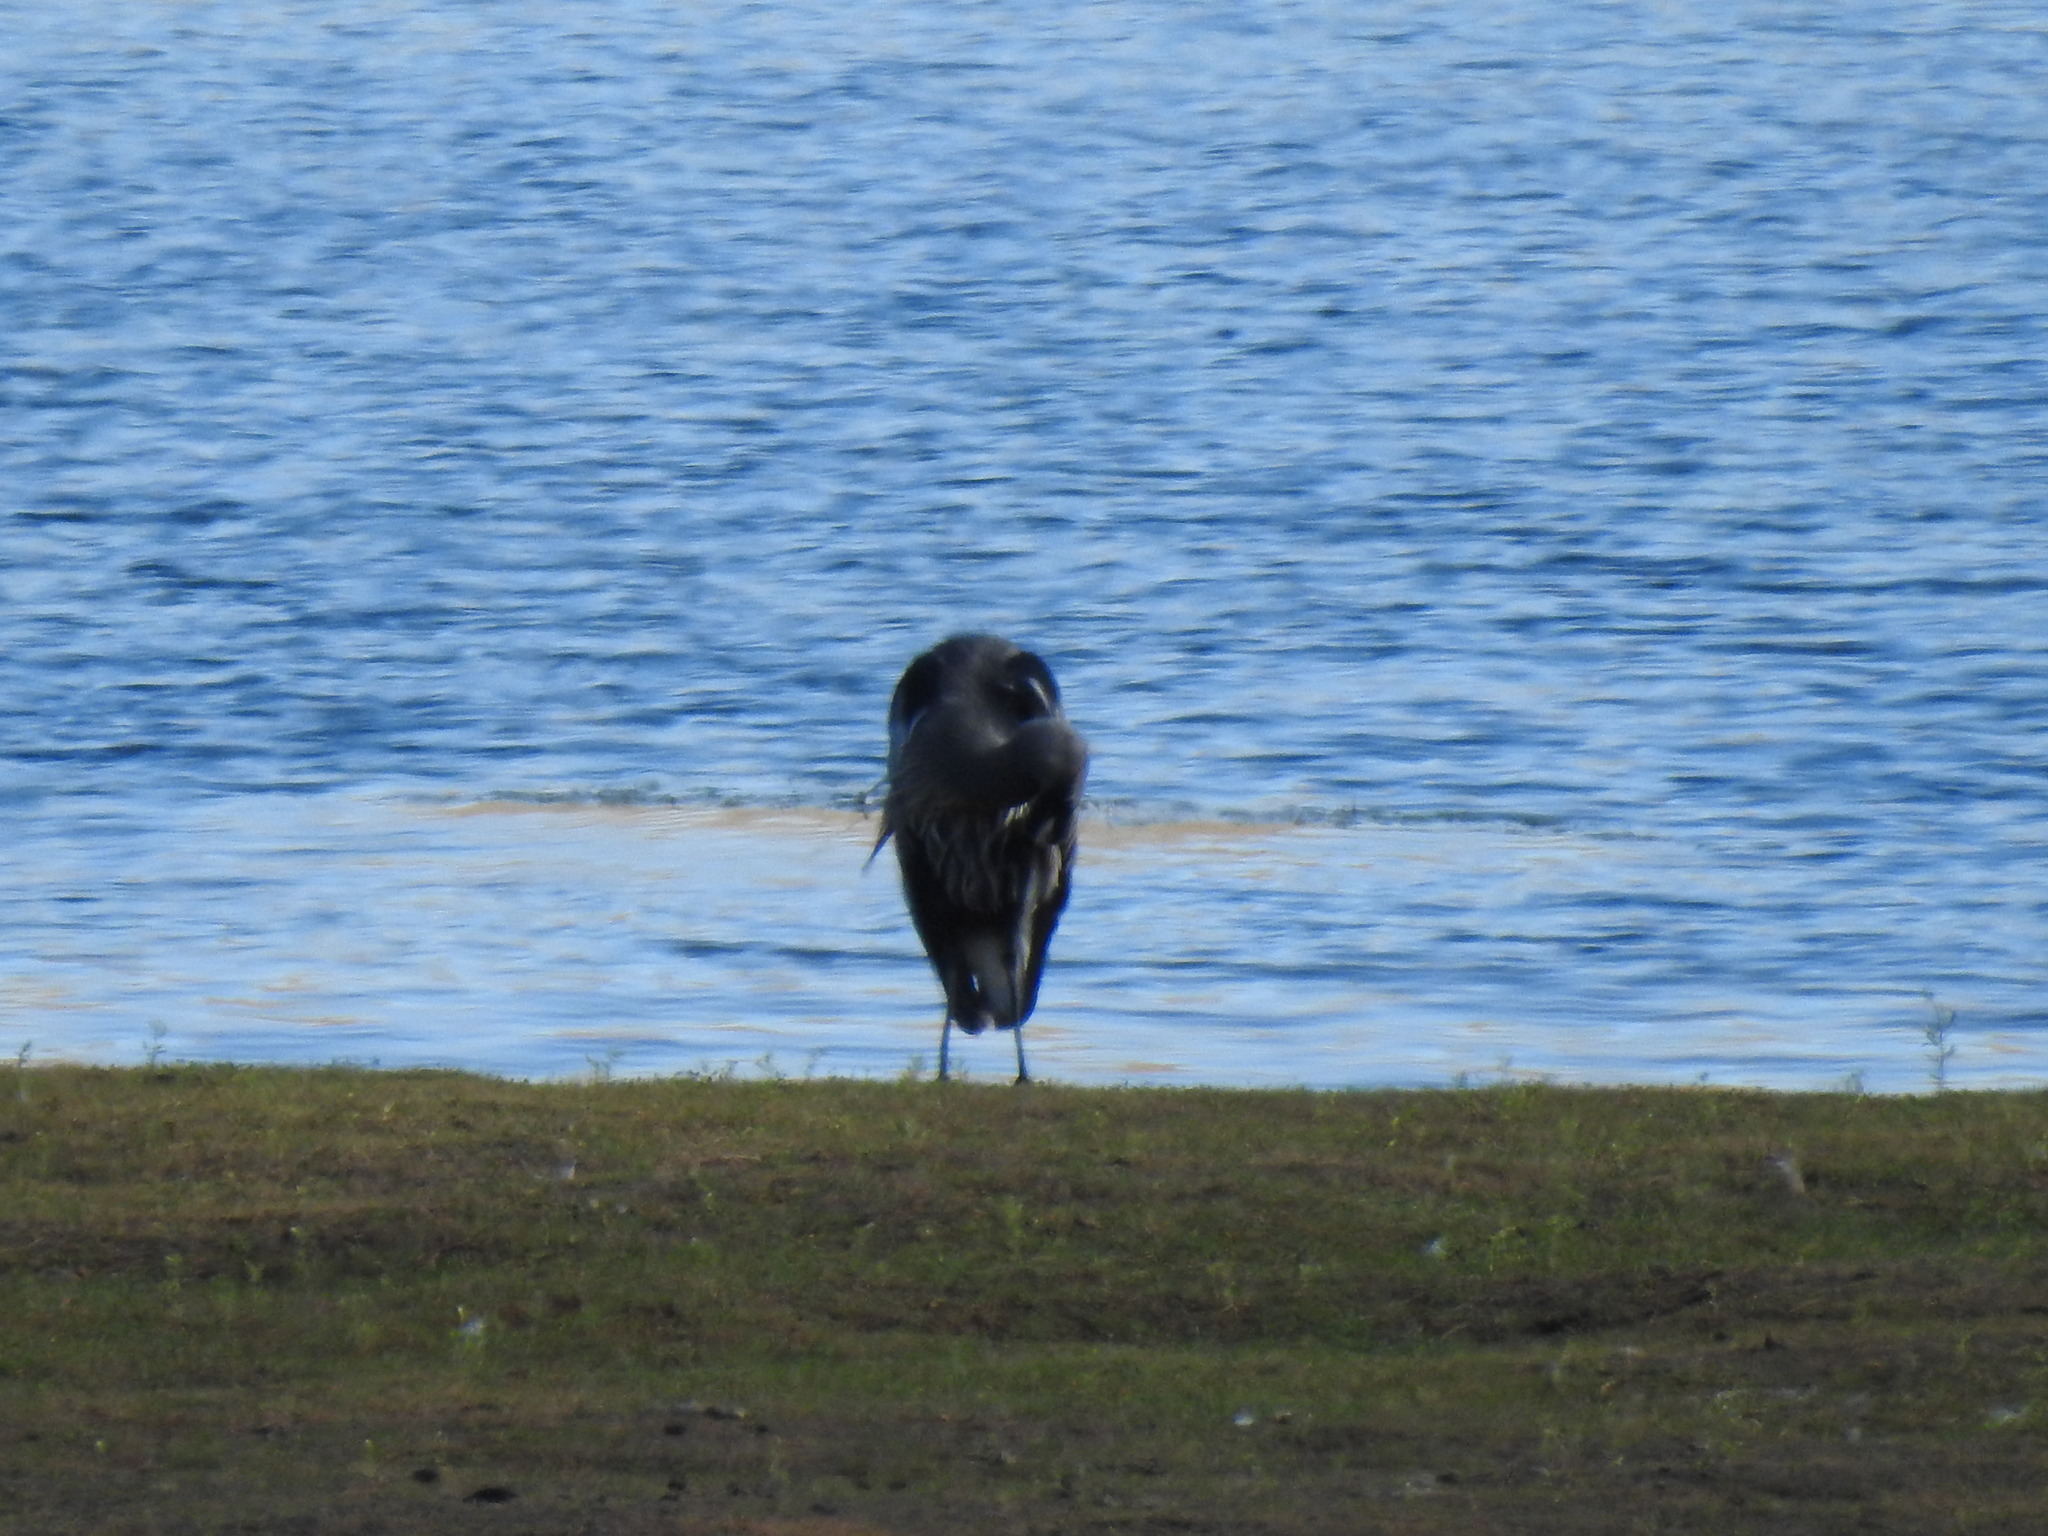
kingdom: Animalia
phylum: Chordata
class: Aves
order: Pelecaniformes
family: Ardeidae
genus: Ardea
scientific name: Ardea herodias
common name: Great blue heron
